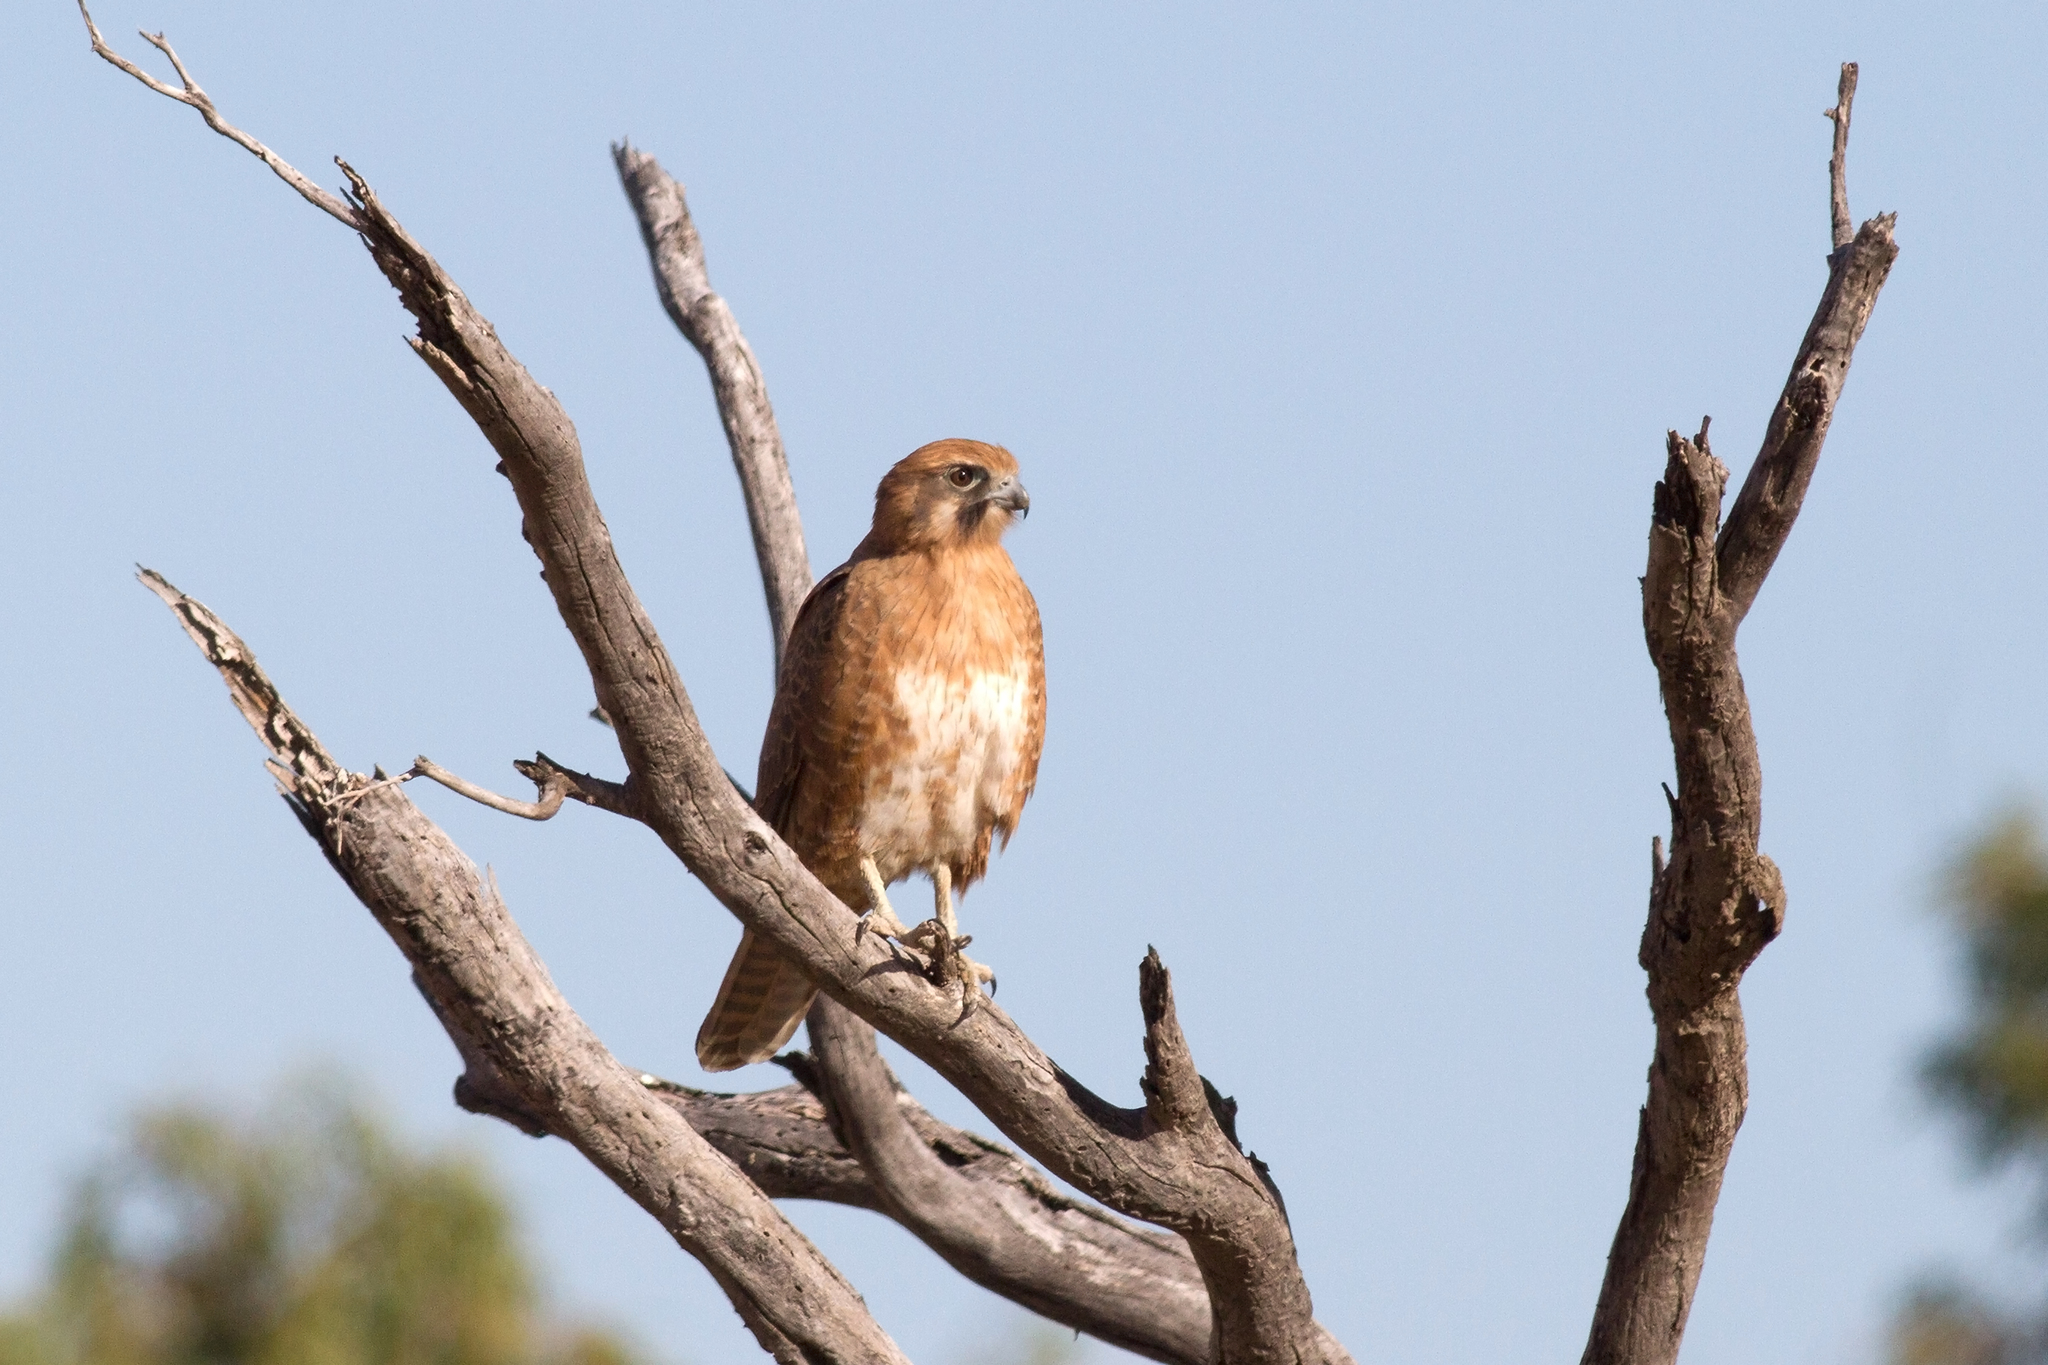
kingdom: Animalia
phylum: Chordata
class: Aves
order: Falconiformes
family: Falconidae
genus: Falco
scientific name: Falco berigora
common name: Brown falcon
